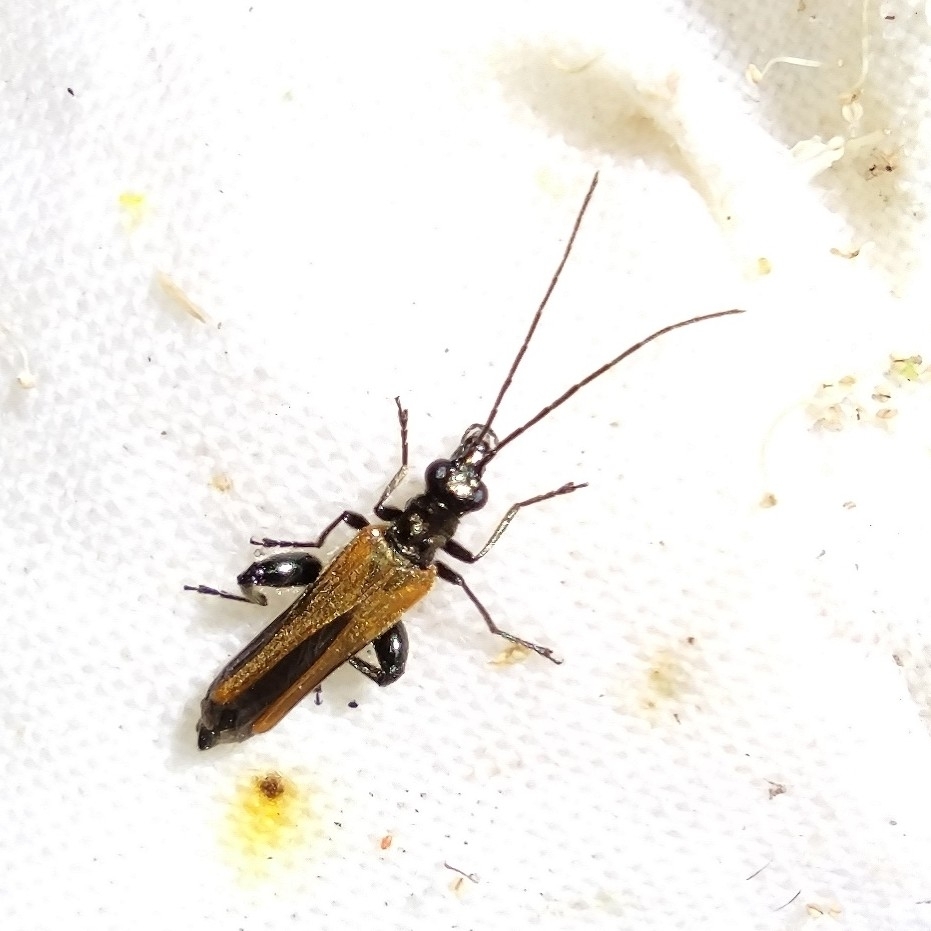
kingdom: Animalia
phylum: Arthropoda
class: Insecta
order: Coleoptera
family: Oedemeridae
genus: Oedemera
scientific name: Oedemera femorata
